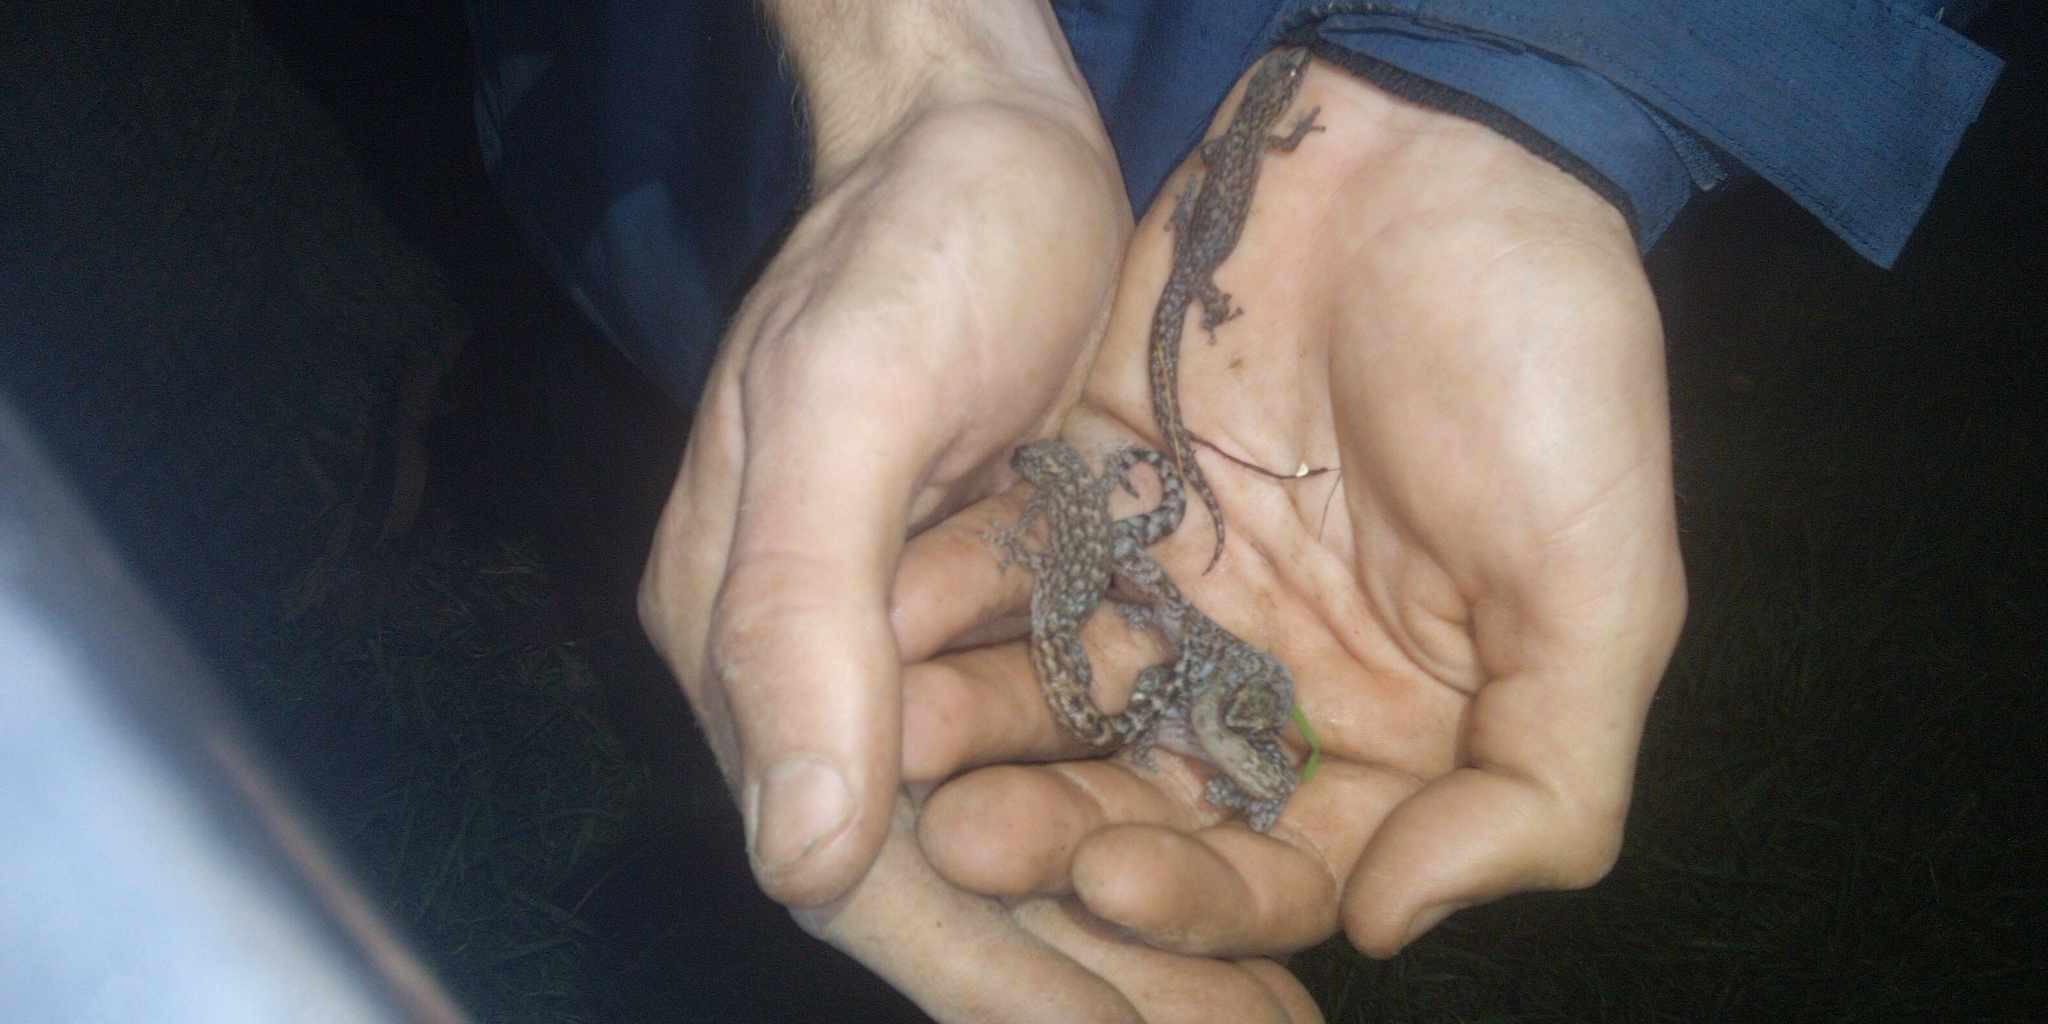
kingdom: Animalia
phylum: Chordata
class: Squamata
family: Gekkonidae
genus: Afrogecko
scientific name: Afrogecko porphyreus
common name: Marbled leaf-toed gecko
